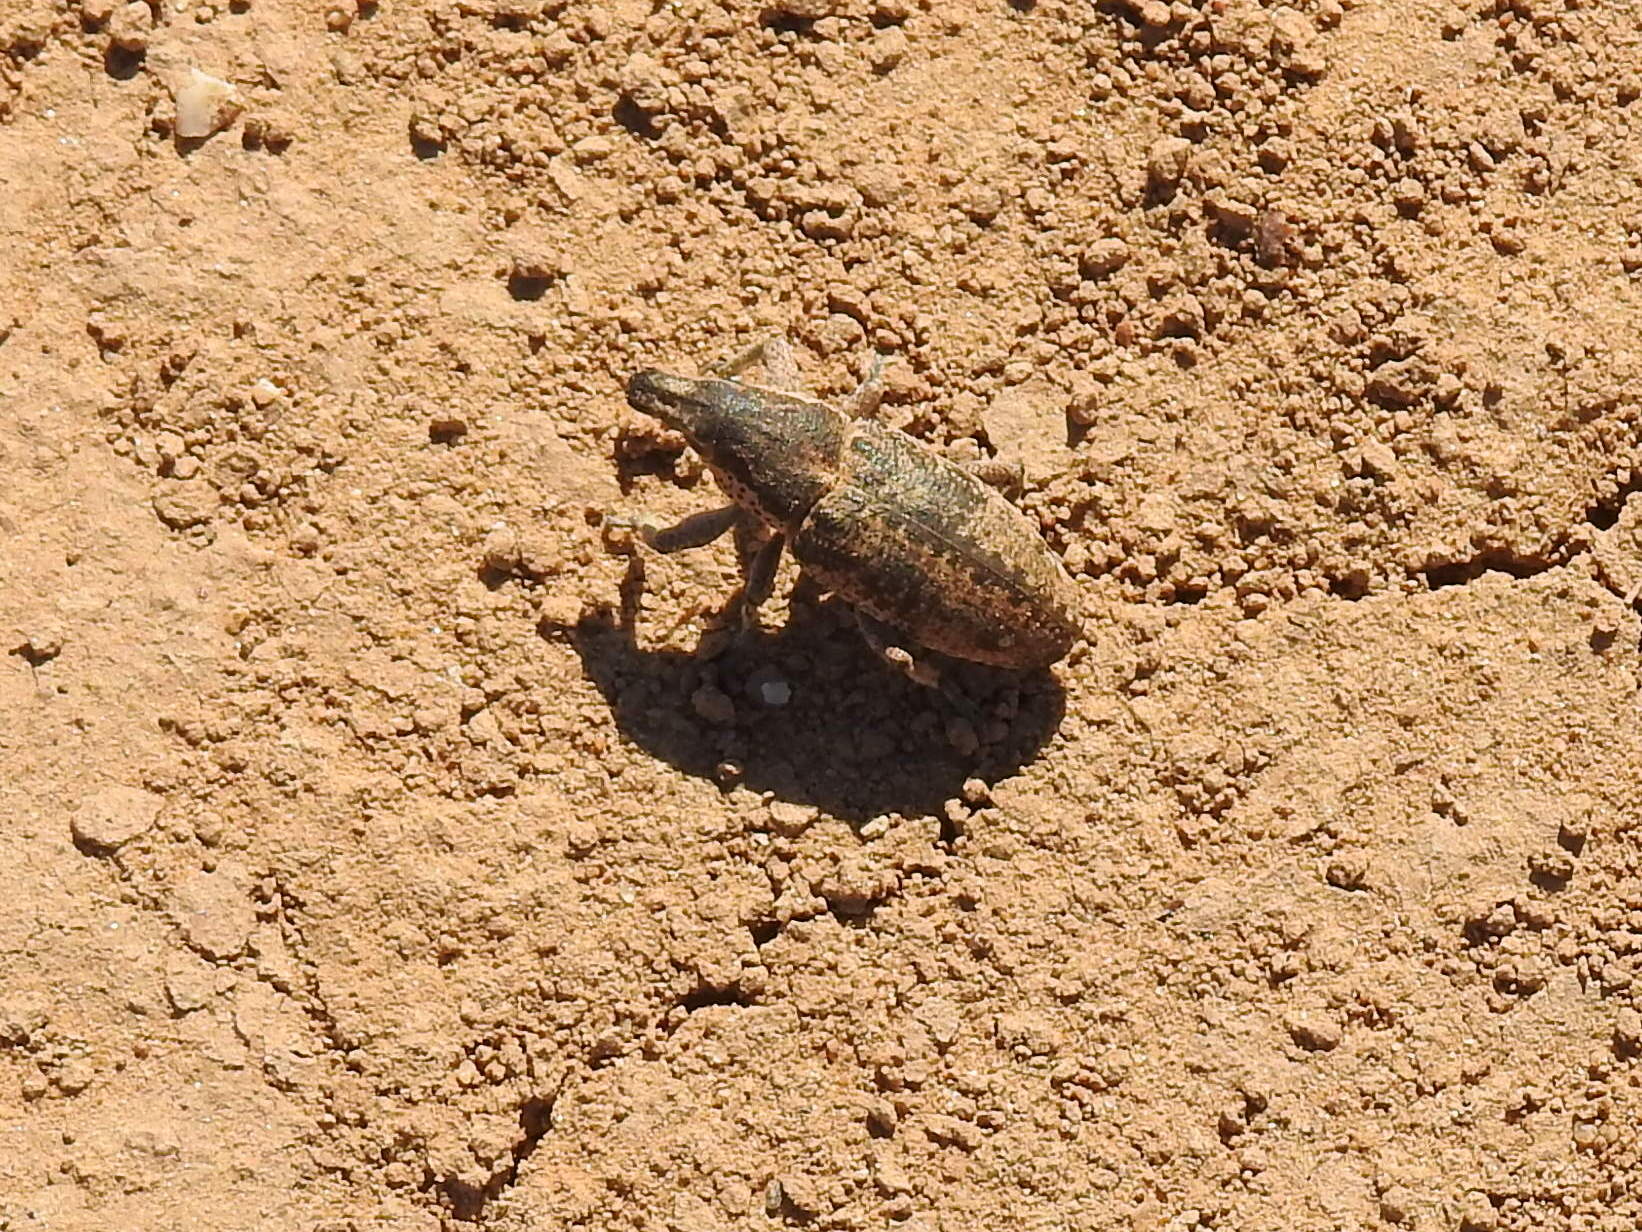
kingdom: Animalia
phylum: Arthropoda
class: Insecta
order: Coleoptera
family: Curculionidae
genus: Maximus
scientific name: Maximus strabus
